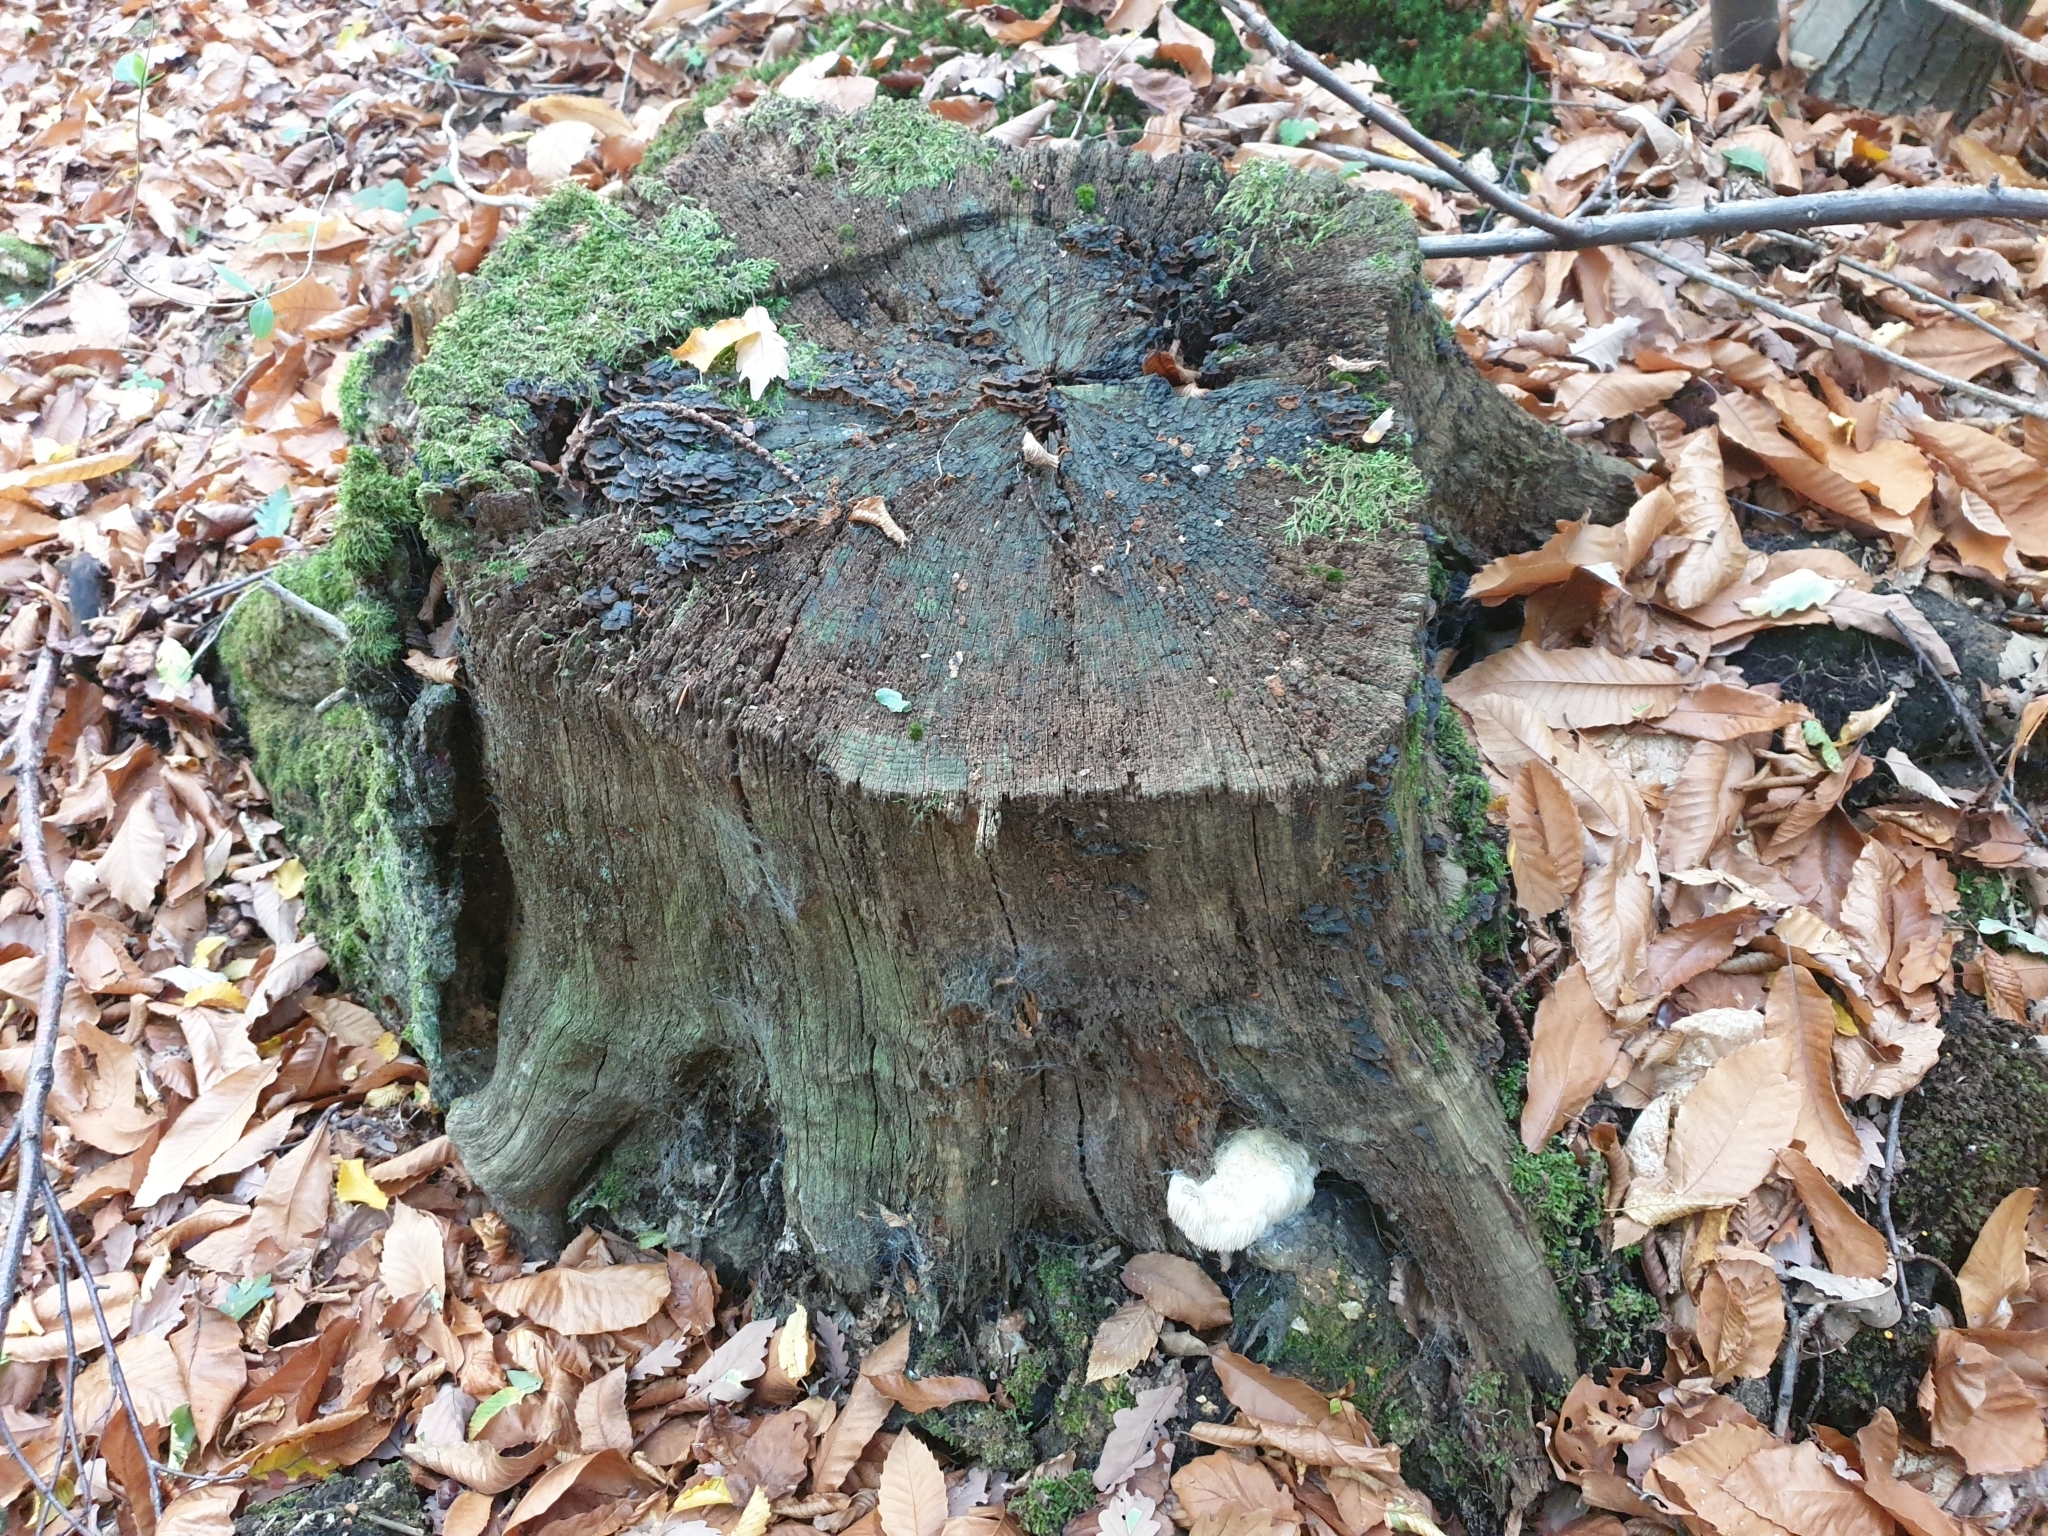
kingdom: Fungi
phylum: Basidiomycota
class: Agaricomycetes
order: Russulales
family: Hericiaceae
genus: Hericium
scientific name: Hericium erinaceus
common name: Bearded tooth
